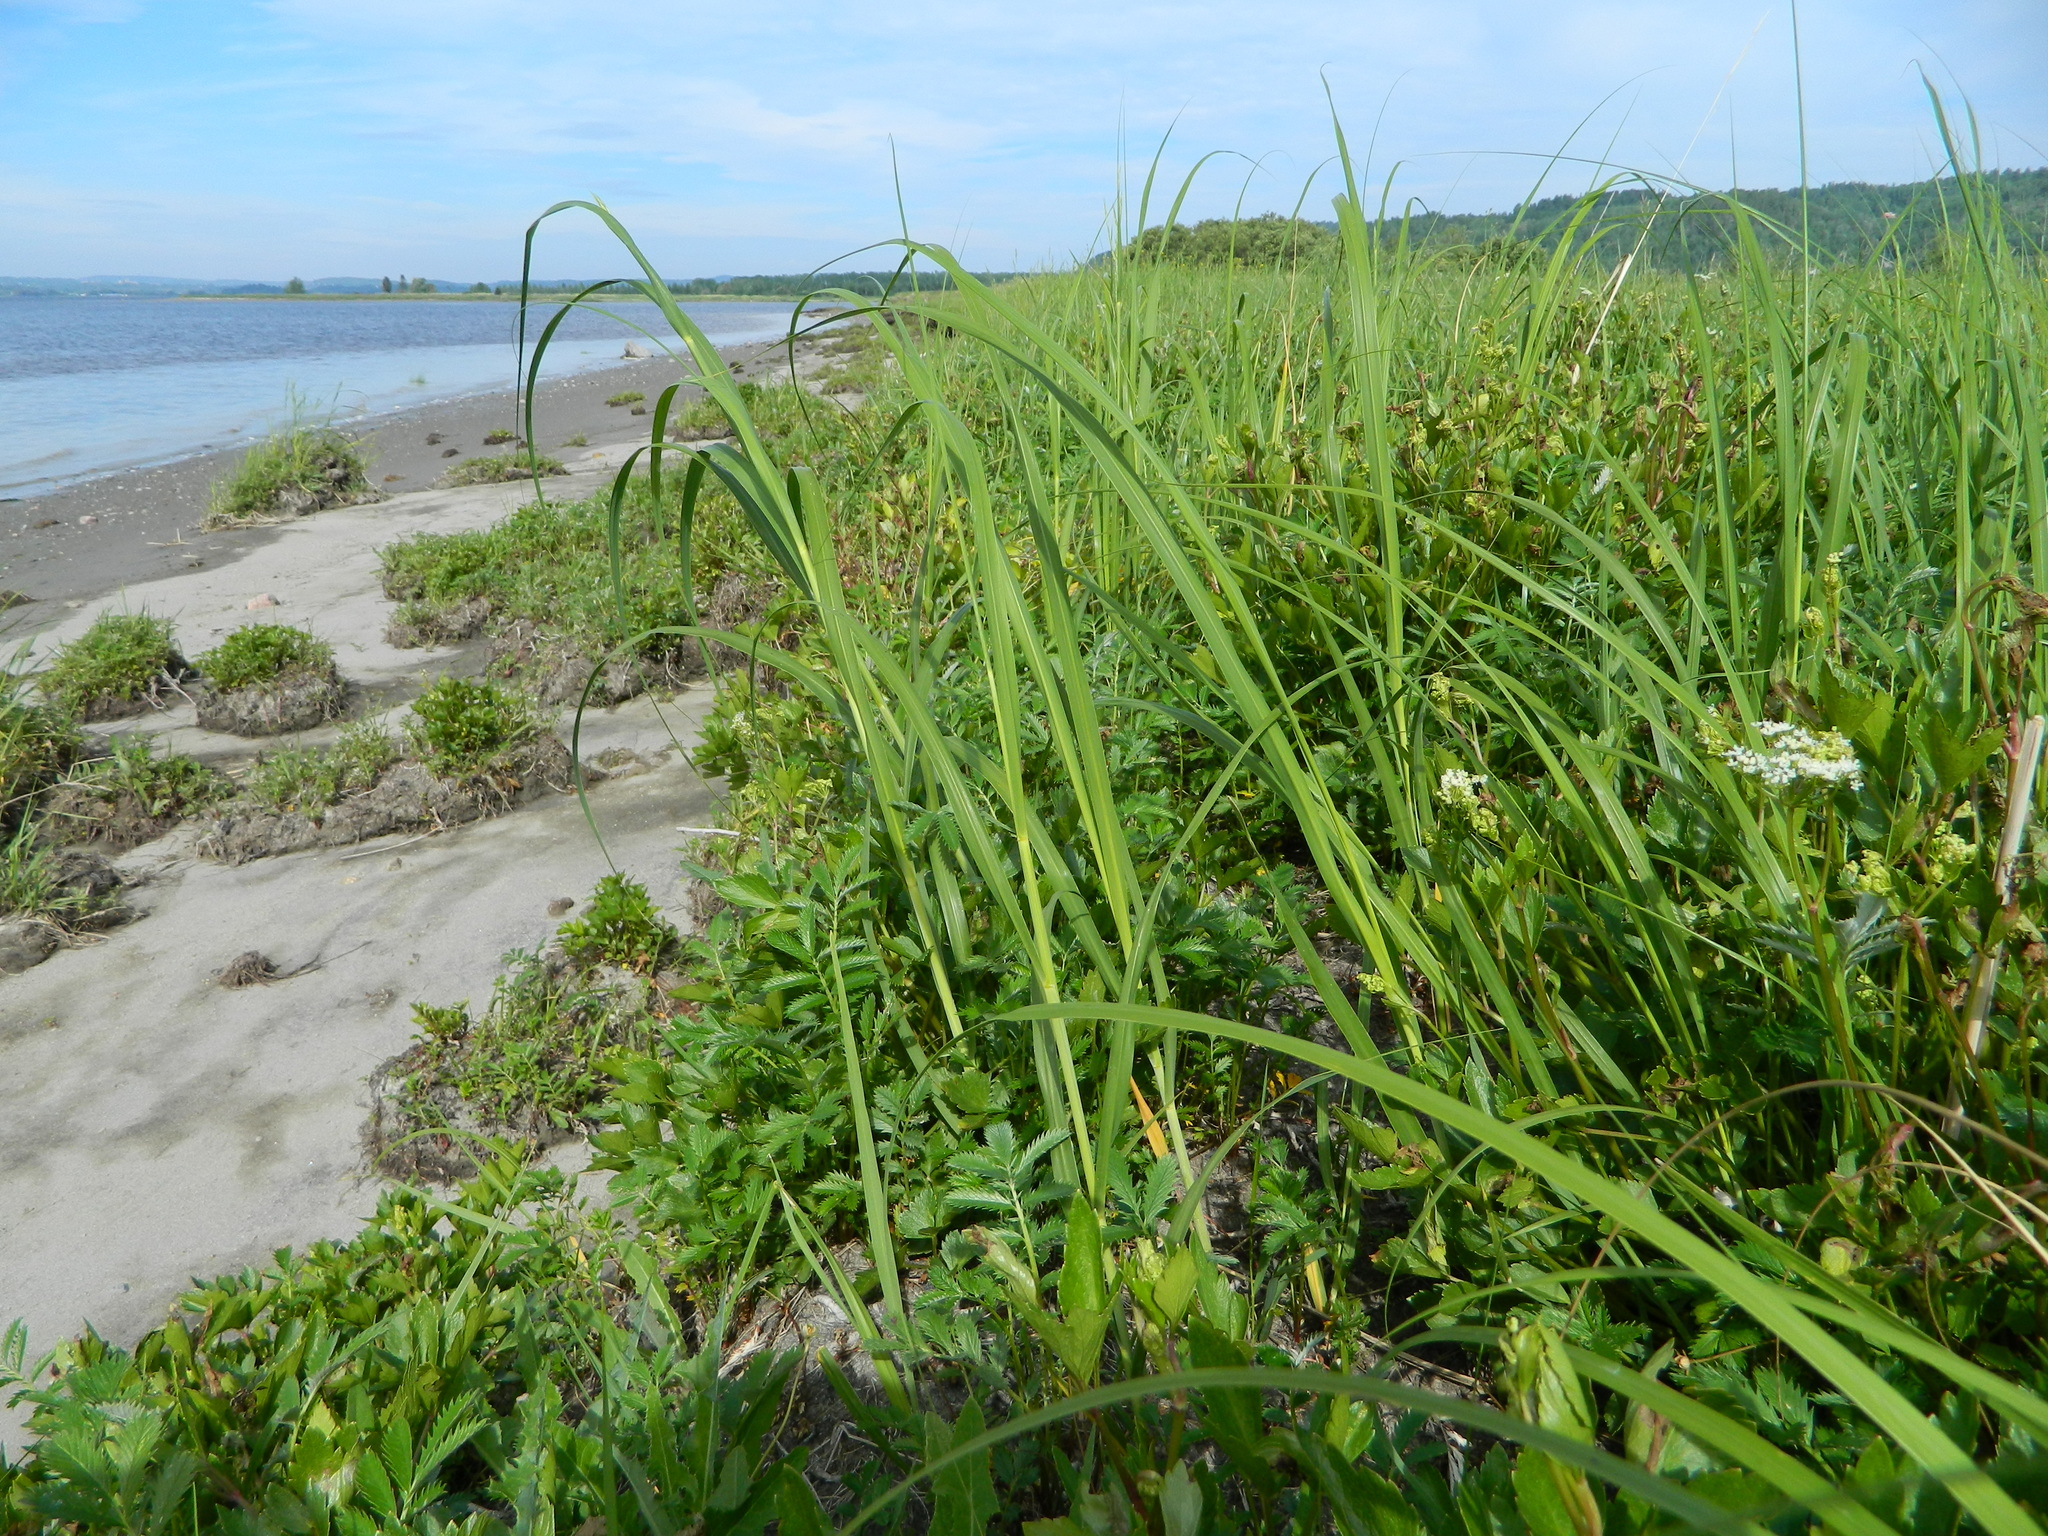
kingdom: Plantae
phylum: Tracheophyta
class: Magnoliopsida
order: Apiales
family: Apiaceae
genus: Ligusticum
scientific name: Ligusticum scothicum
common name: Beach lovage
